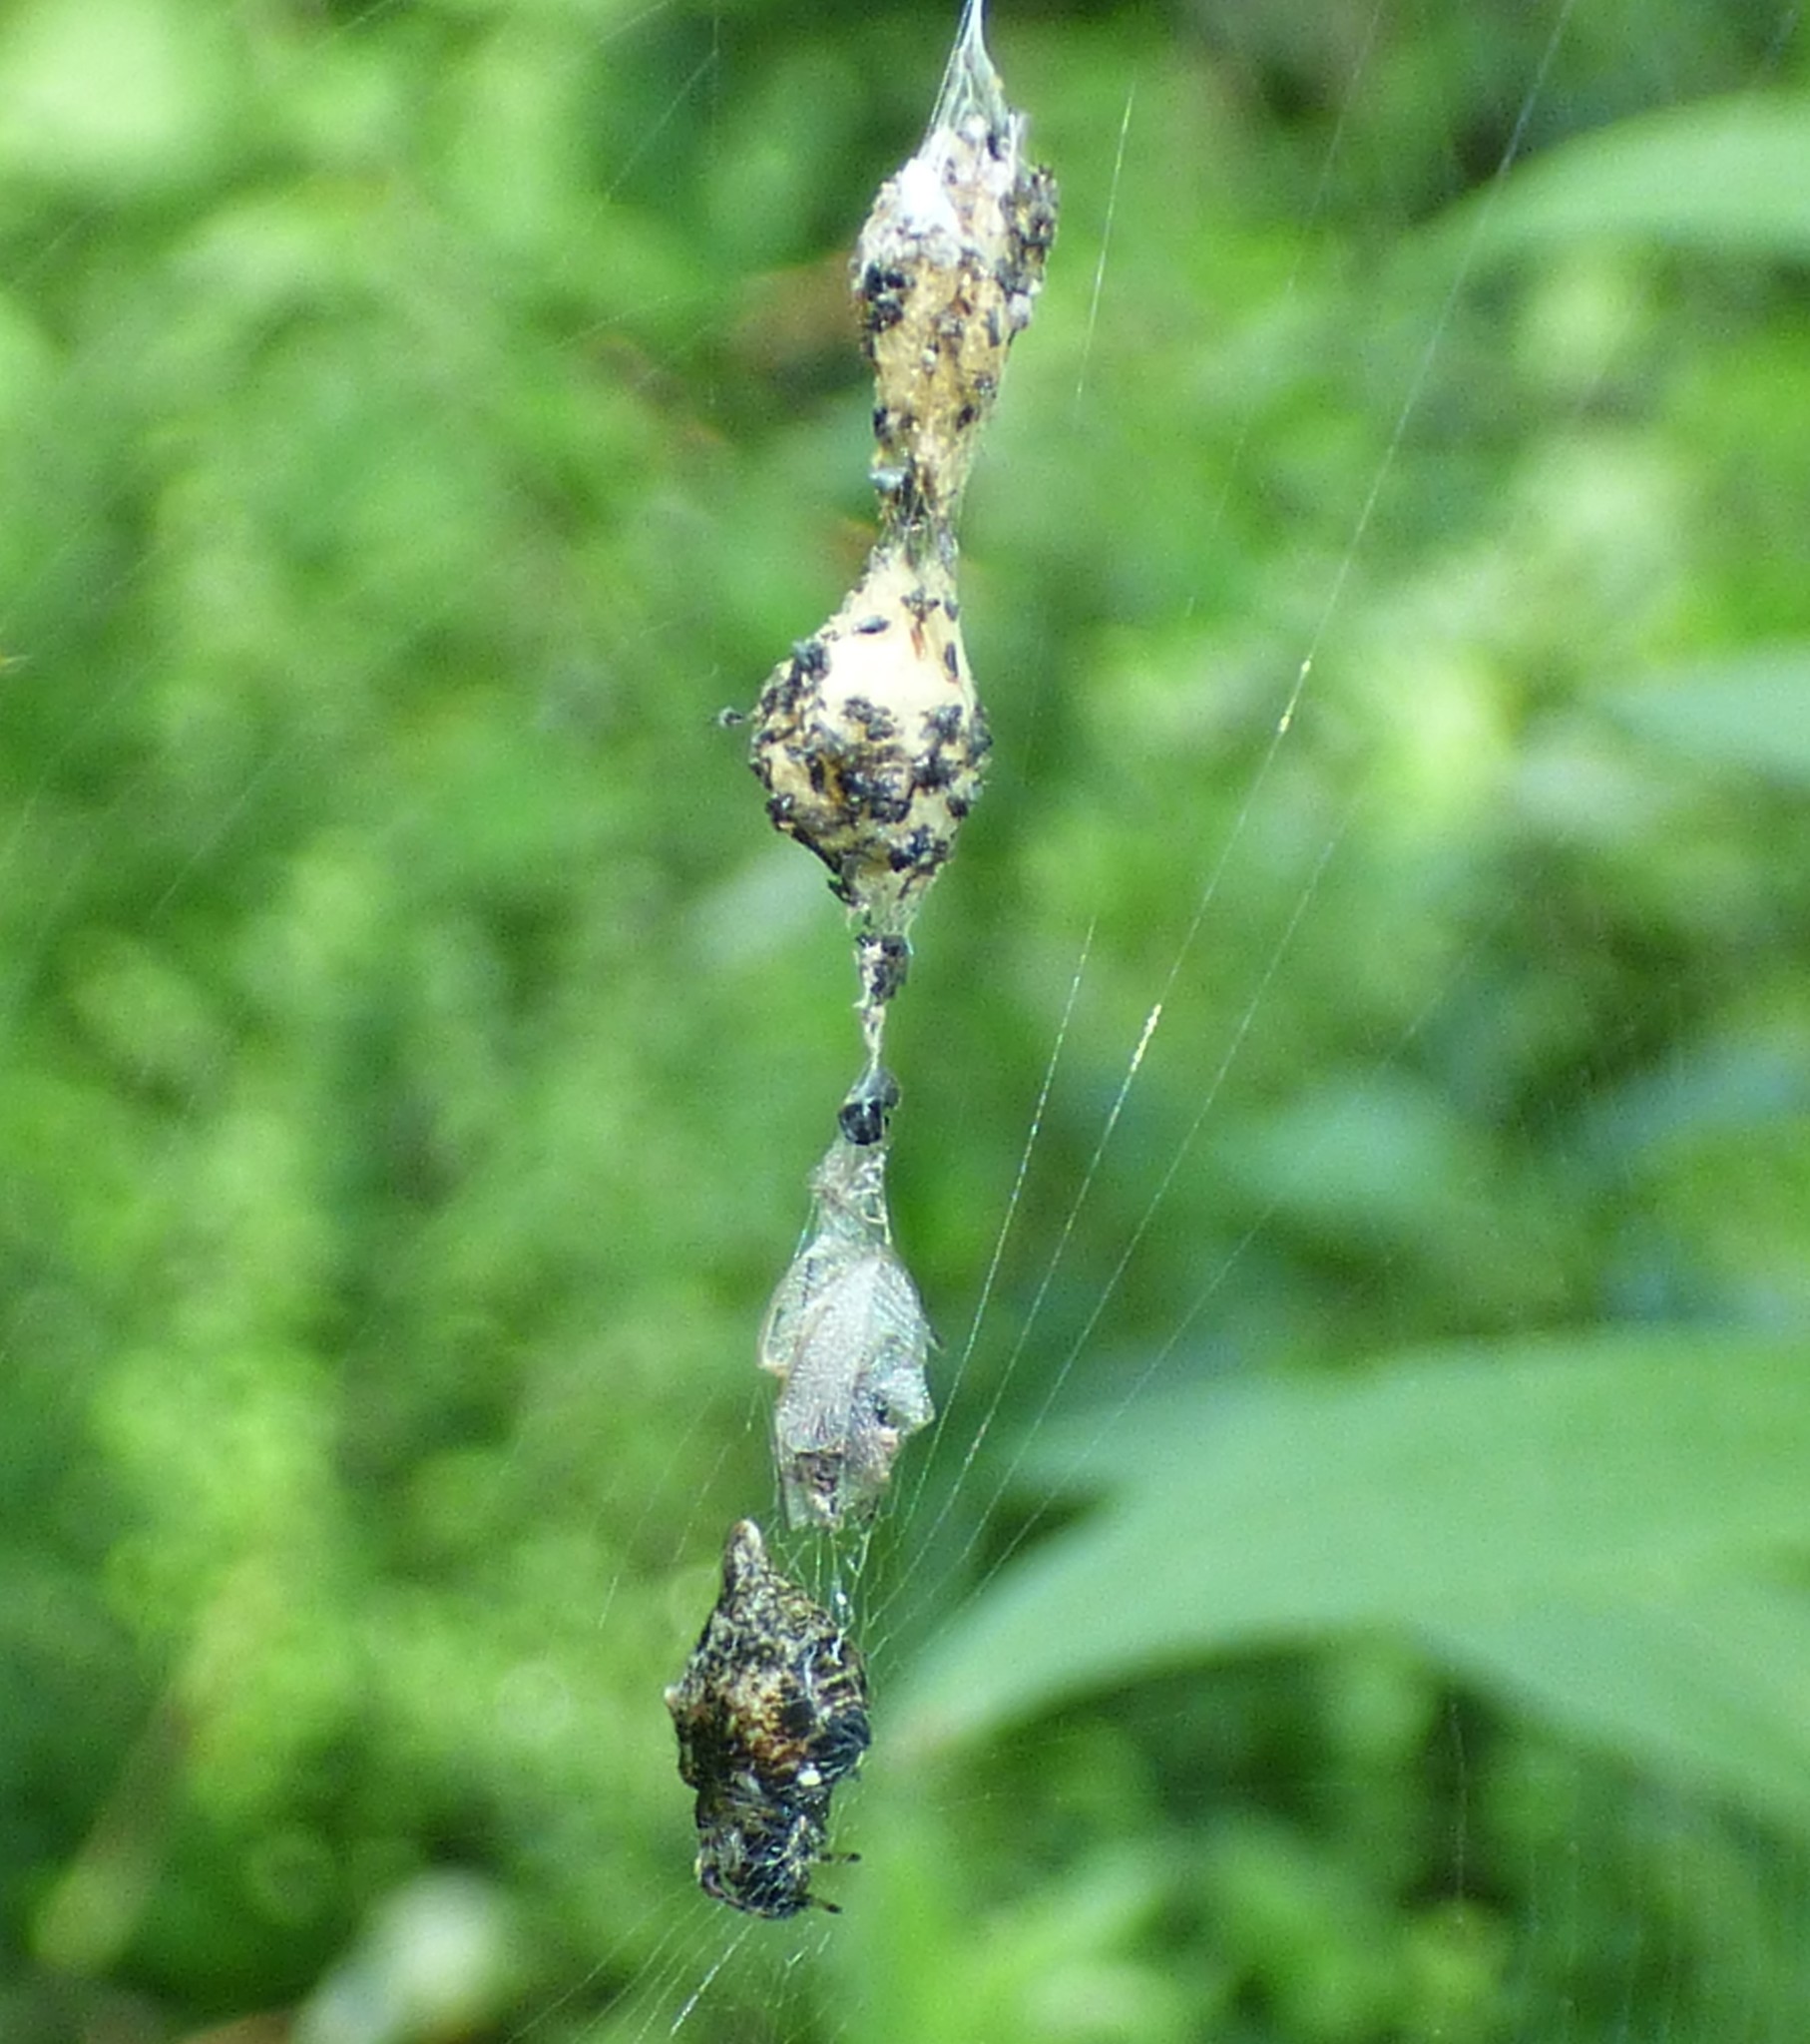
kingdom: Animalia
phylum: Arthropoda
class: Arachnida
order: Araneae
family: Araneidae
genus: Cyclosa
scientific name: Cyclosa turbinata
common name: Orb weavers
